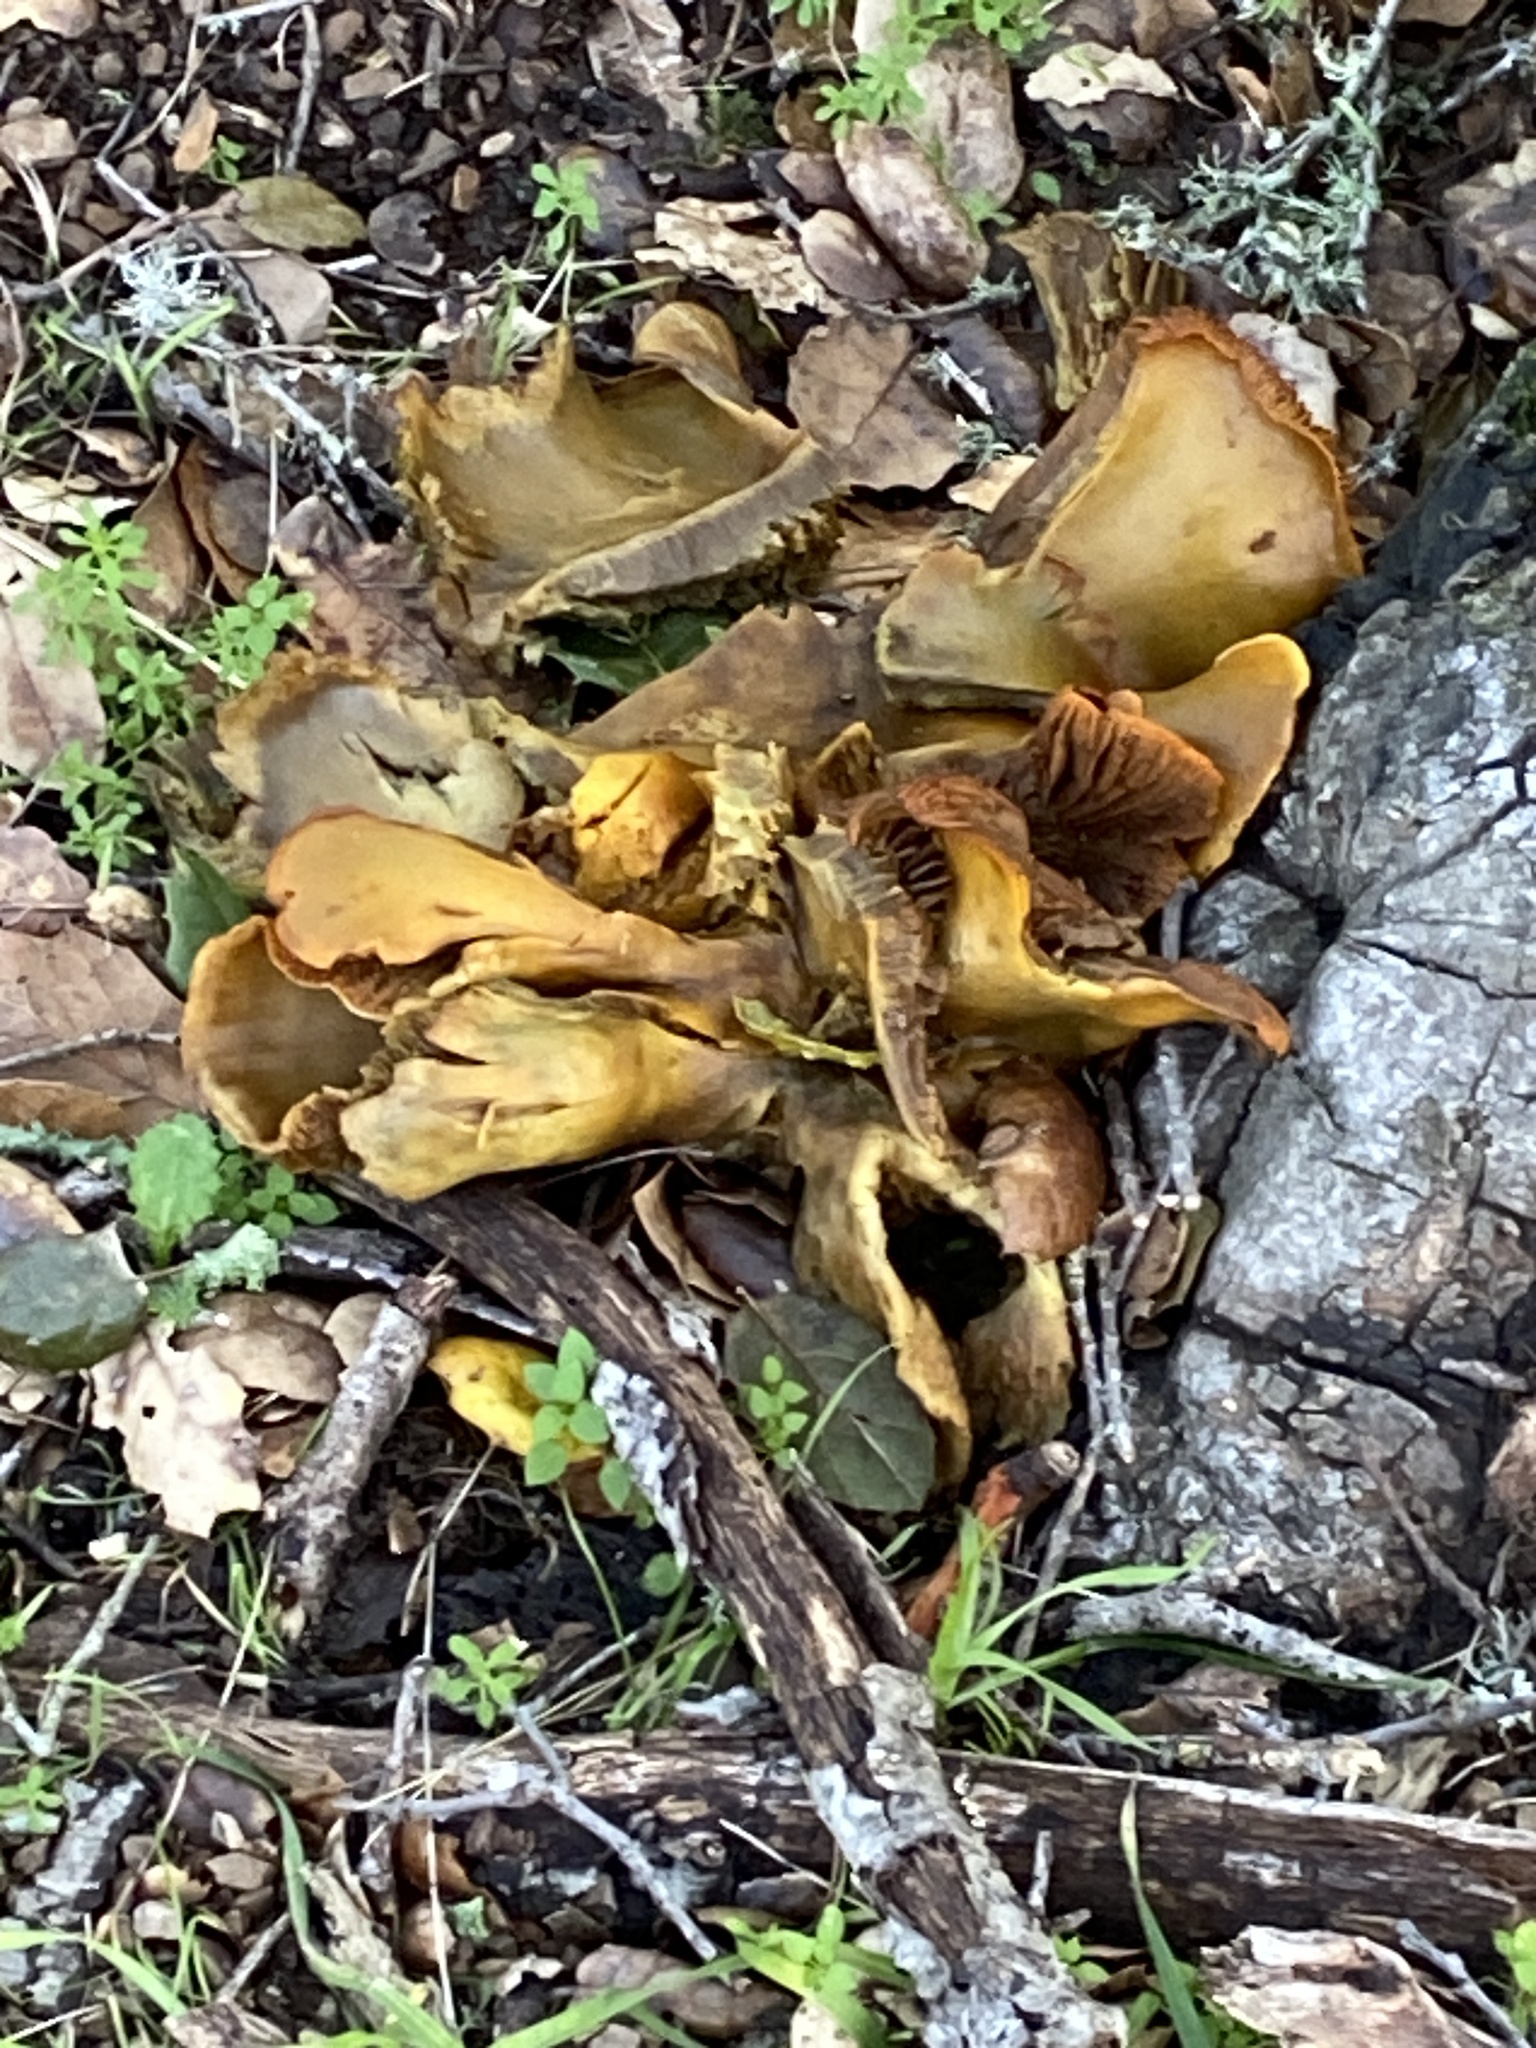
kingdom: Fungi
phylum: Basidiomycota
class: Agaricomycetes
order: Agaricales
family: Omphalotaceae
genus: Omphalotus
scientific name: Omphalotus olivascens
